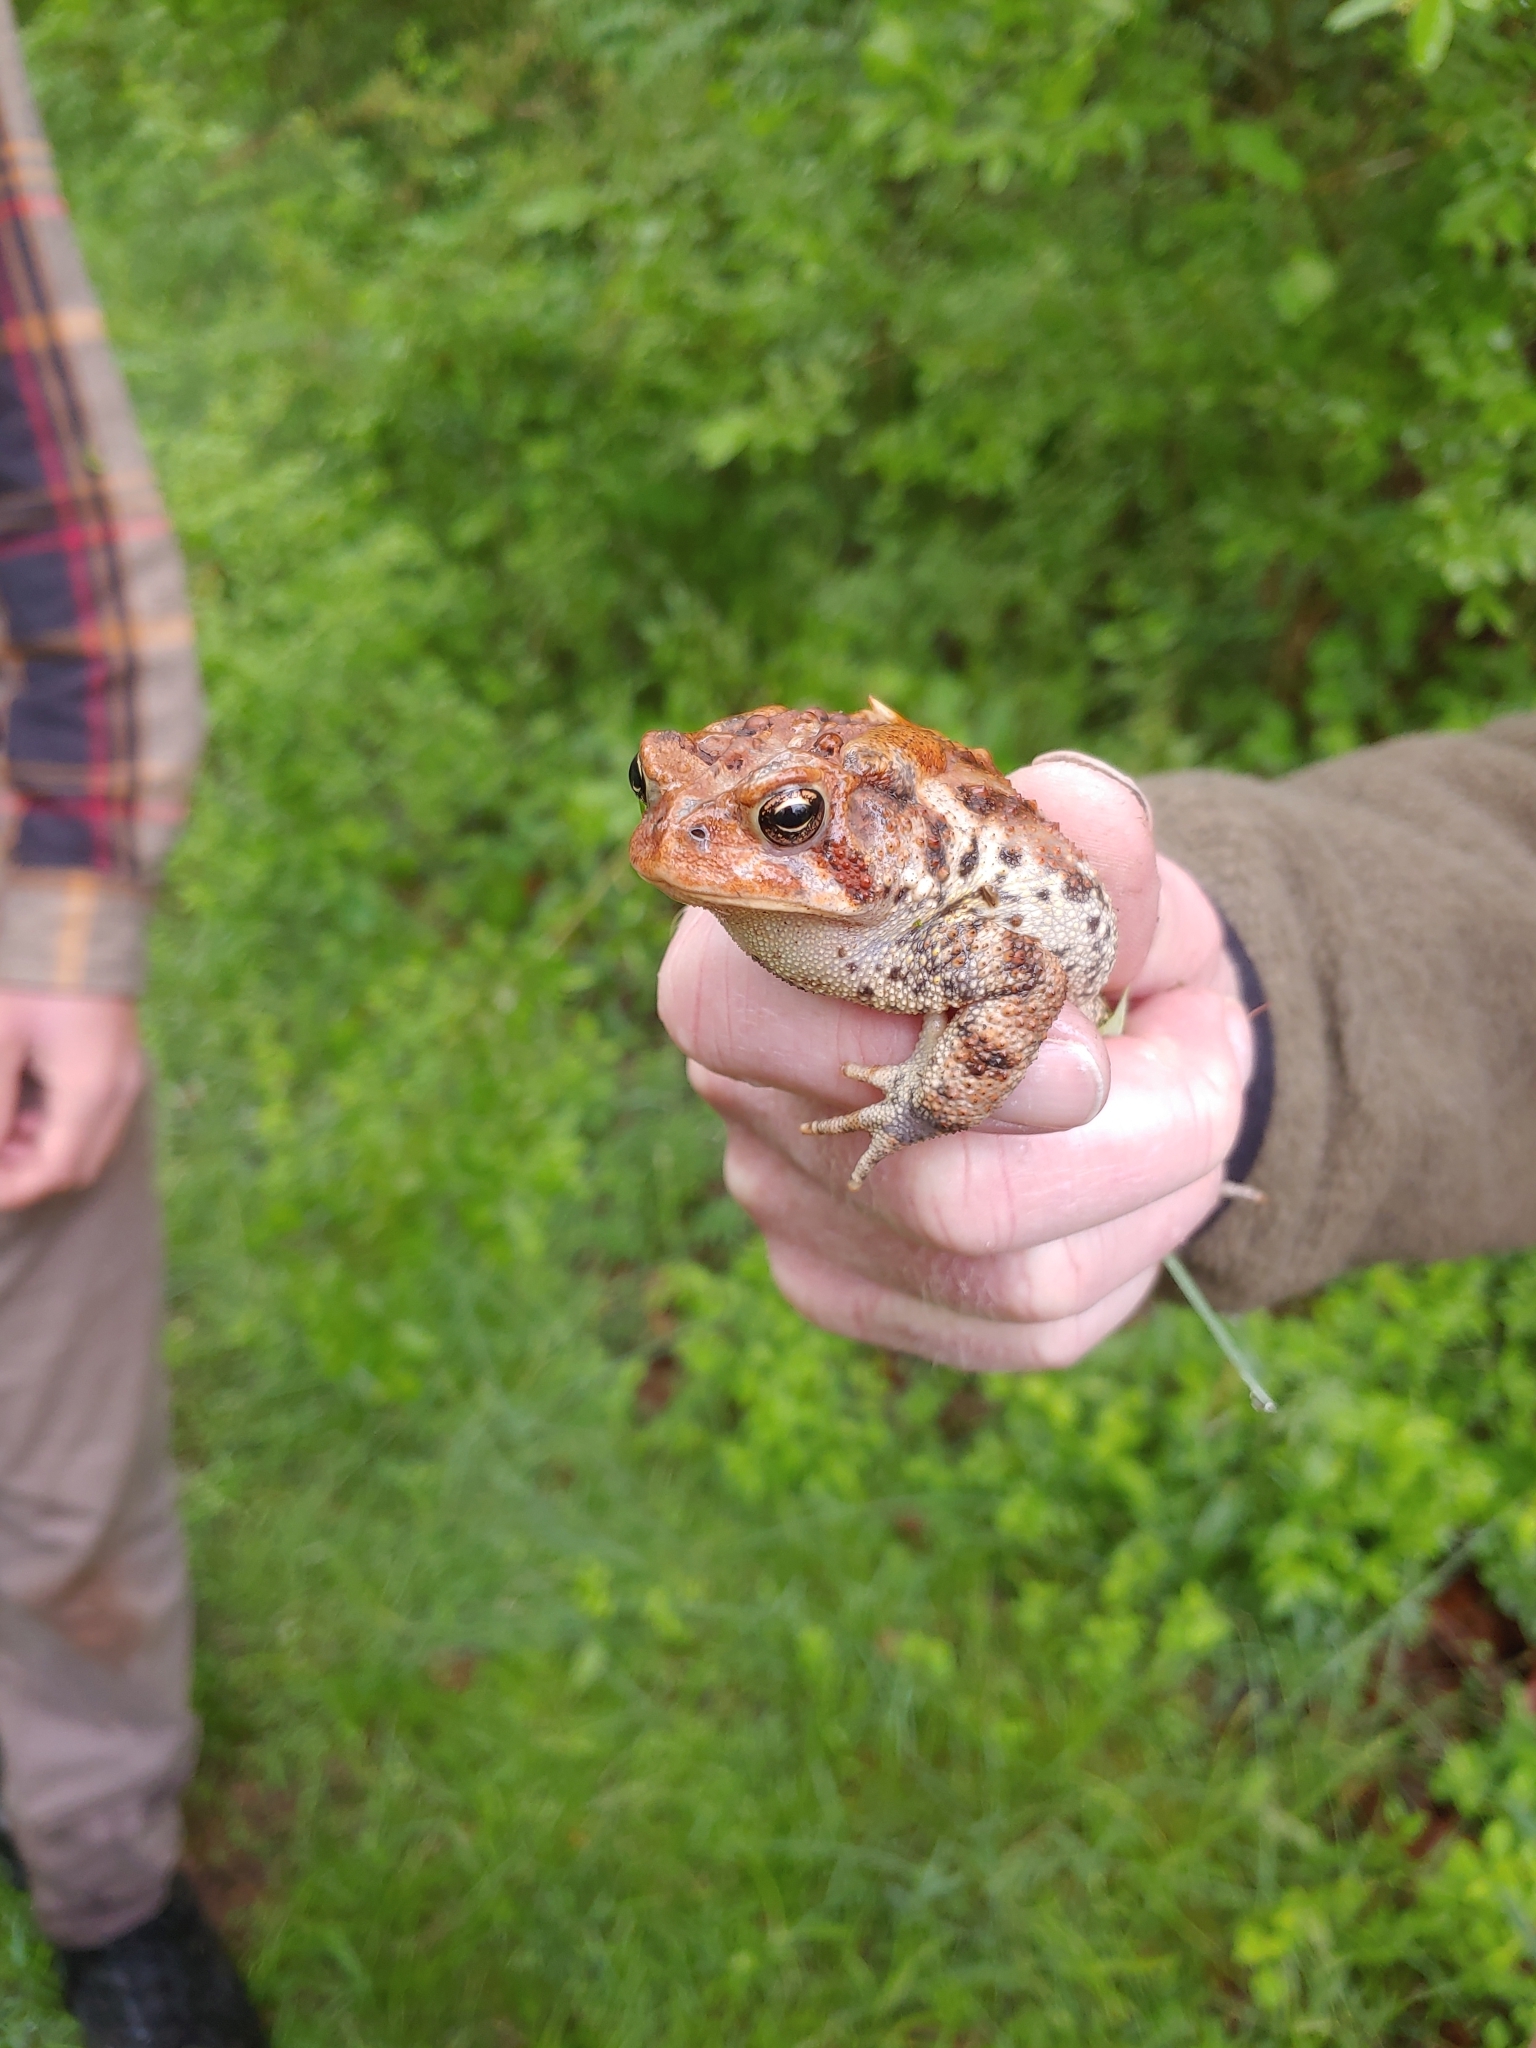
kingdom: Animalia
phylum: Chordata
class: Amphibia
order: Anura
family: Bufonidae
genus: Anaxyrus
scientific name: Anaxyrus americanus
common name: American toad
